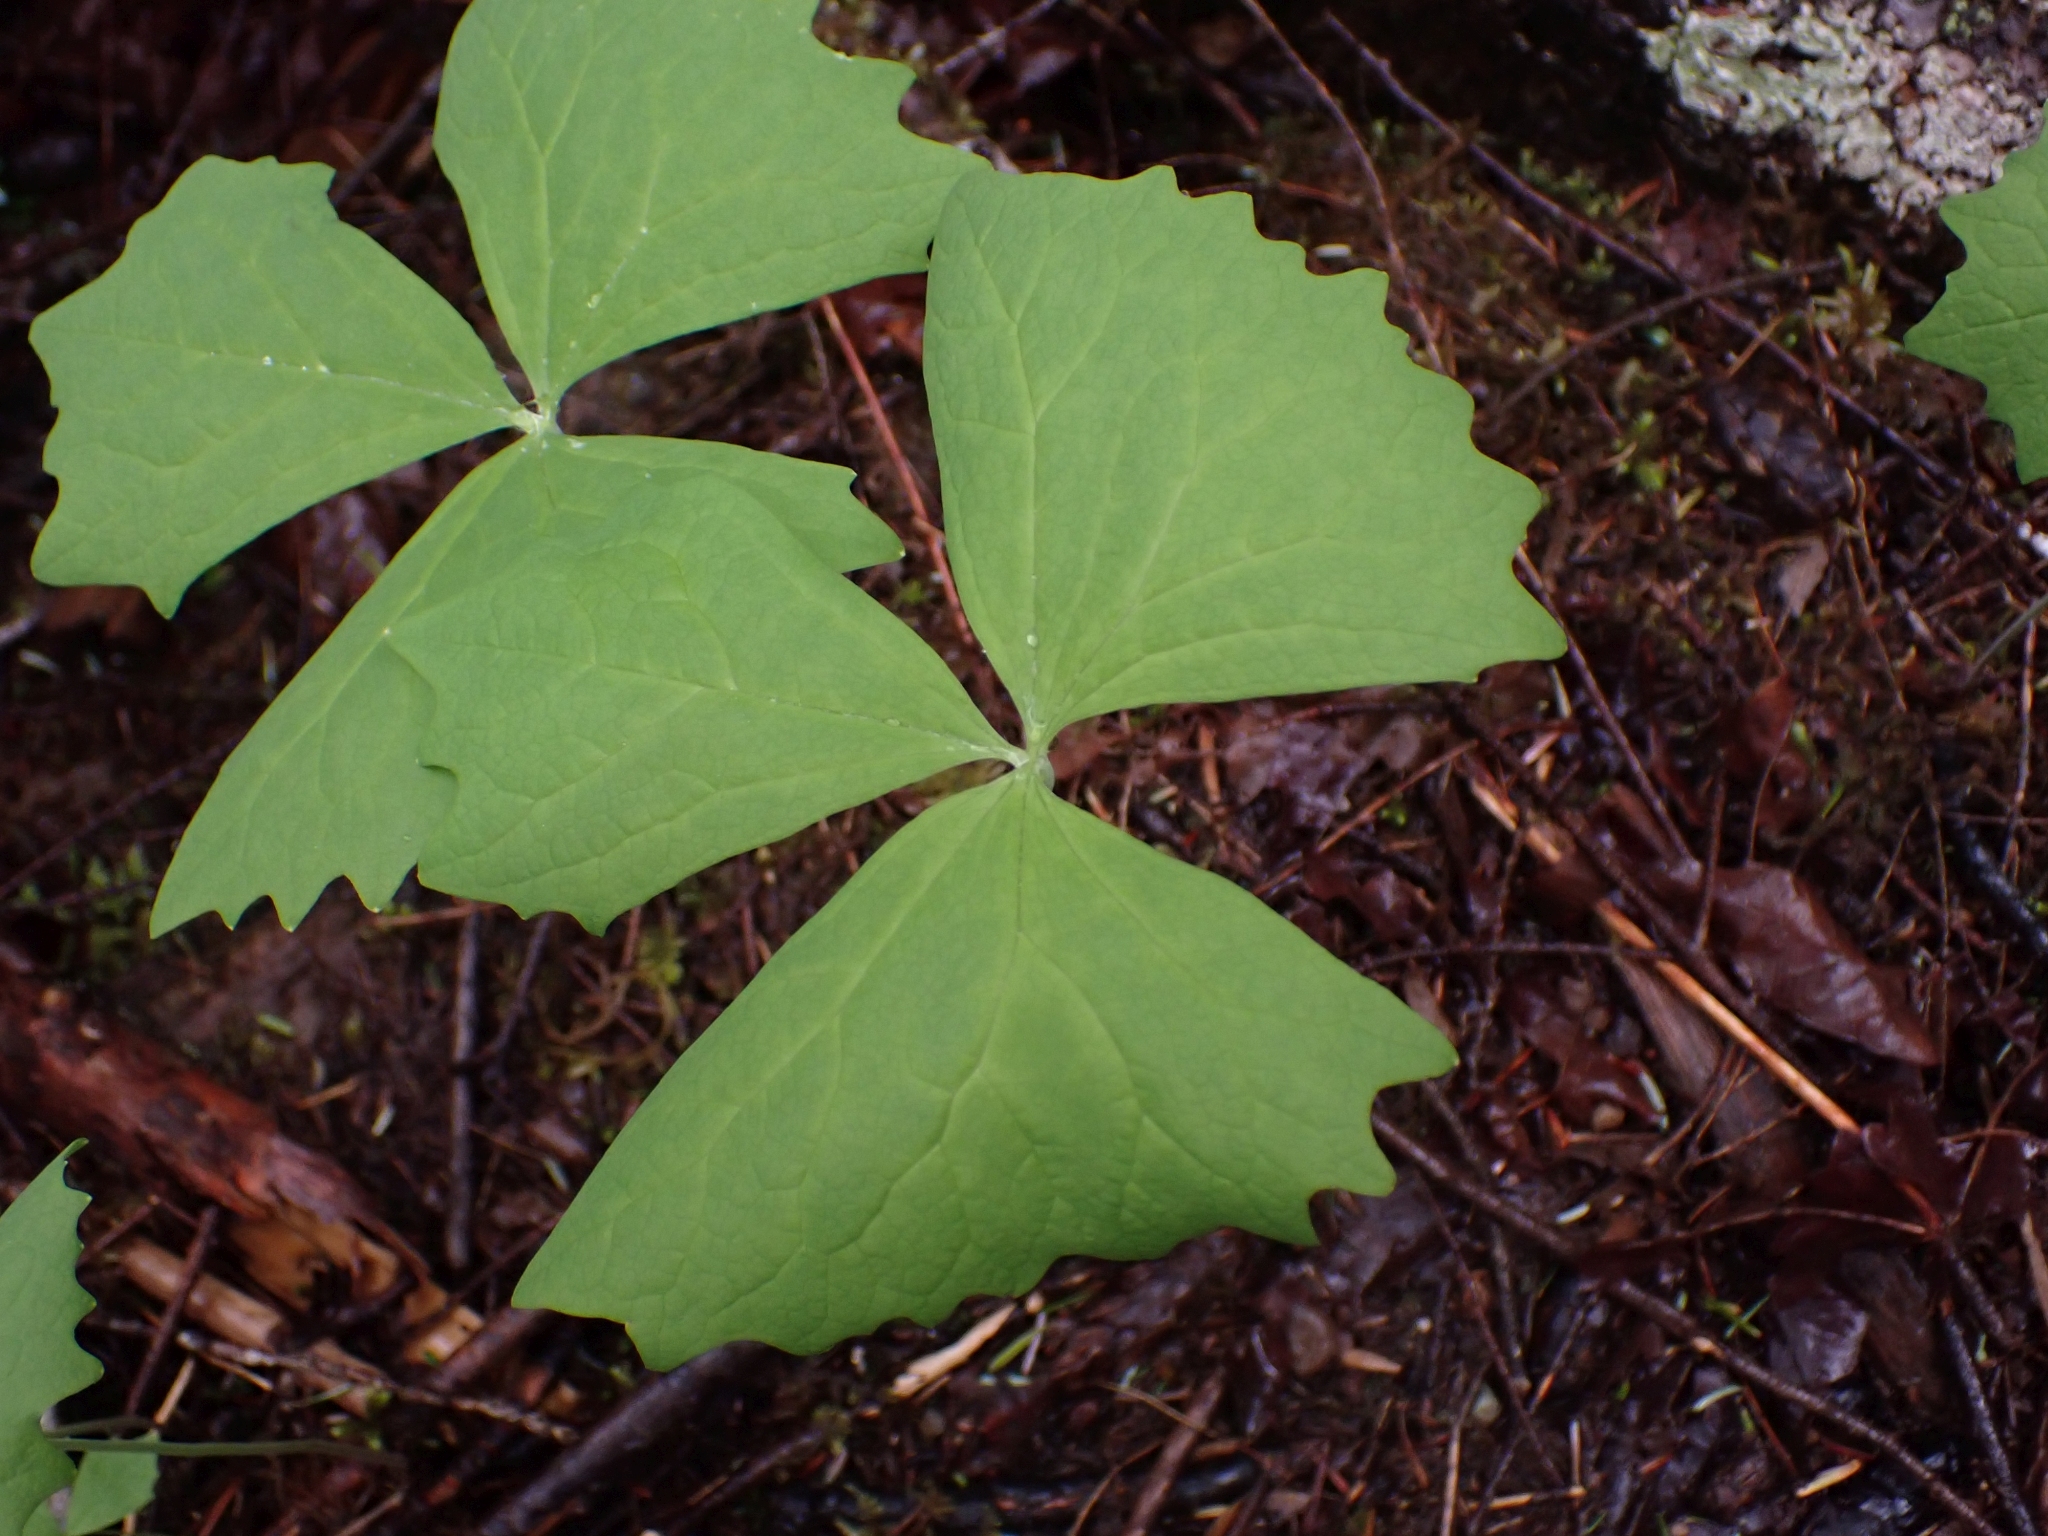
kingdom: Plantae
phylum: Tracheophyta
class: Magnoliopsida
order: Ranunculales
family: Berberidaceae
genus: Achlys
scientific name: Achlys triphylla
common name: Vanilla-leaf
